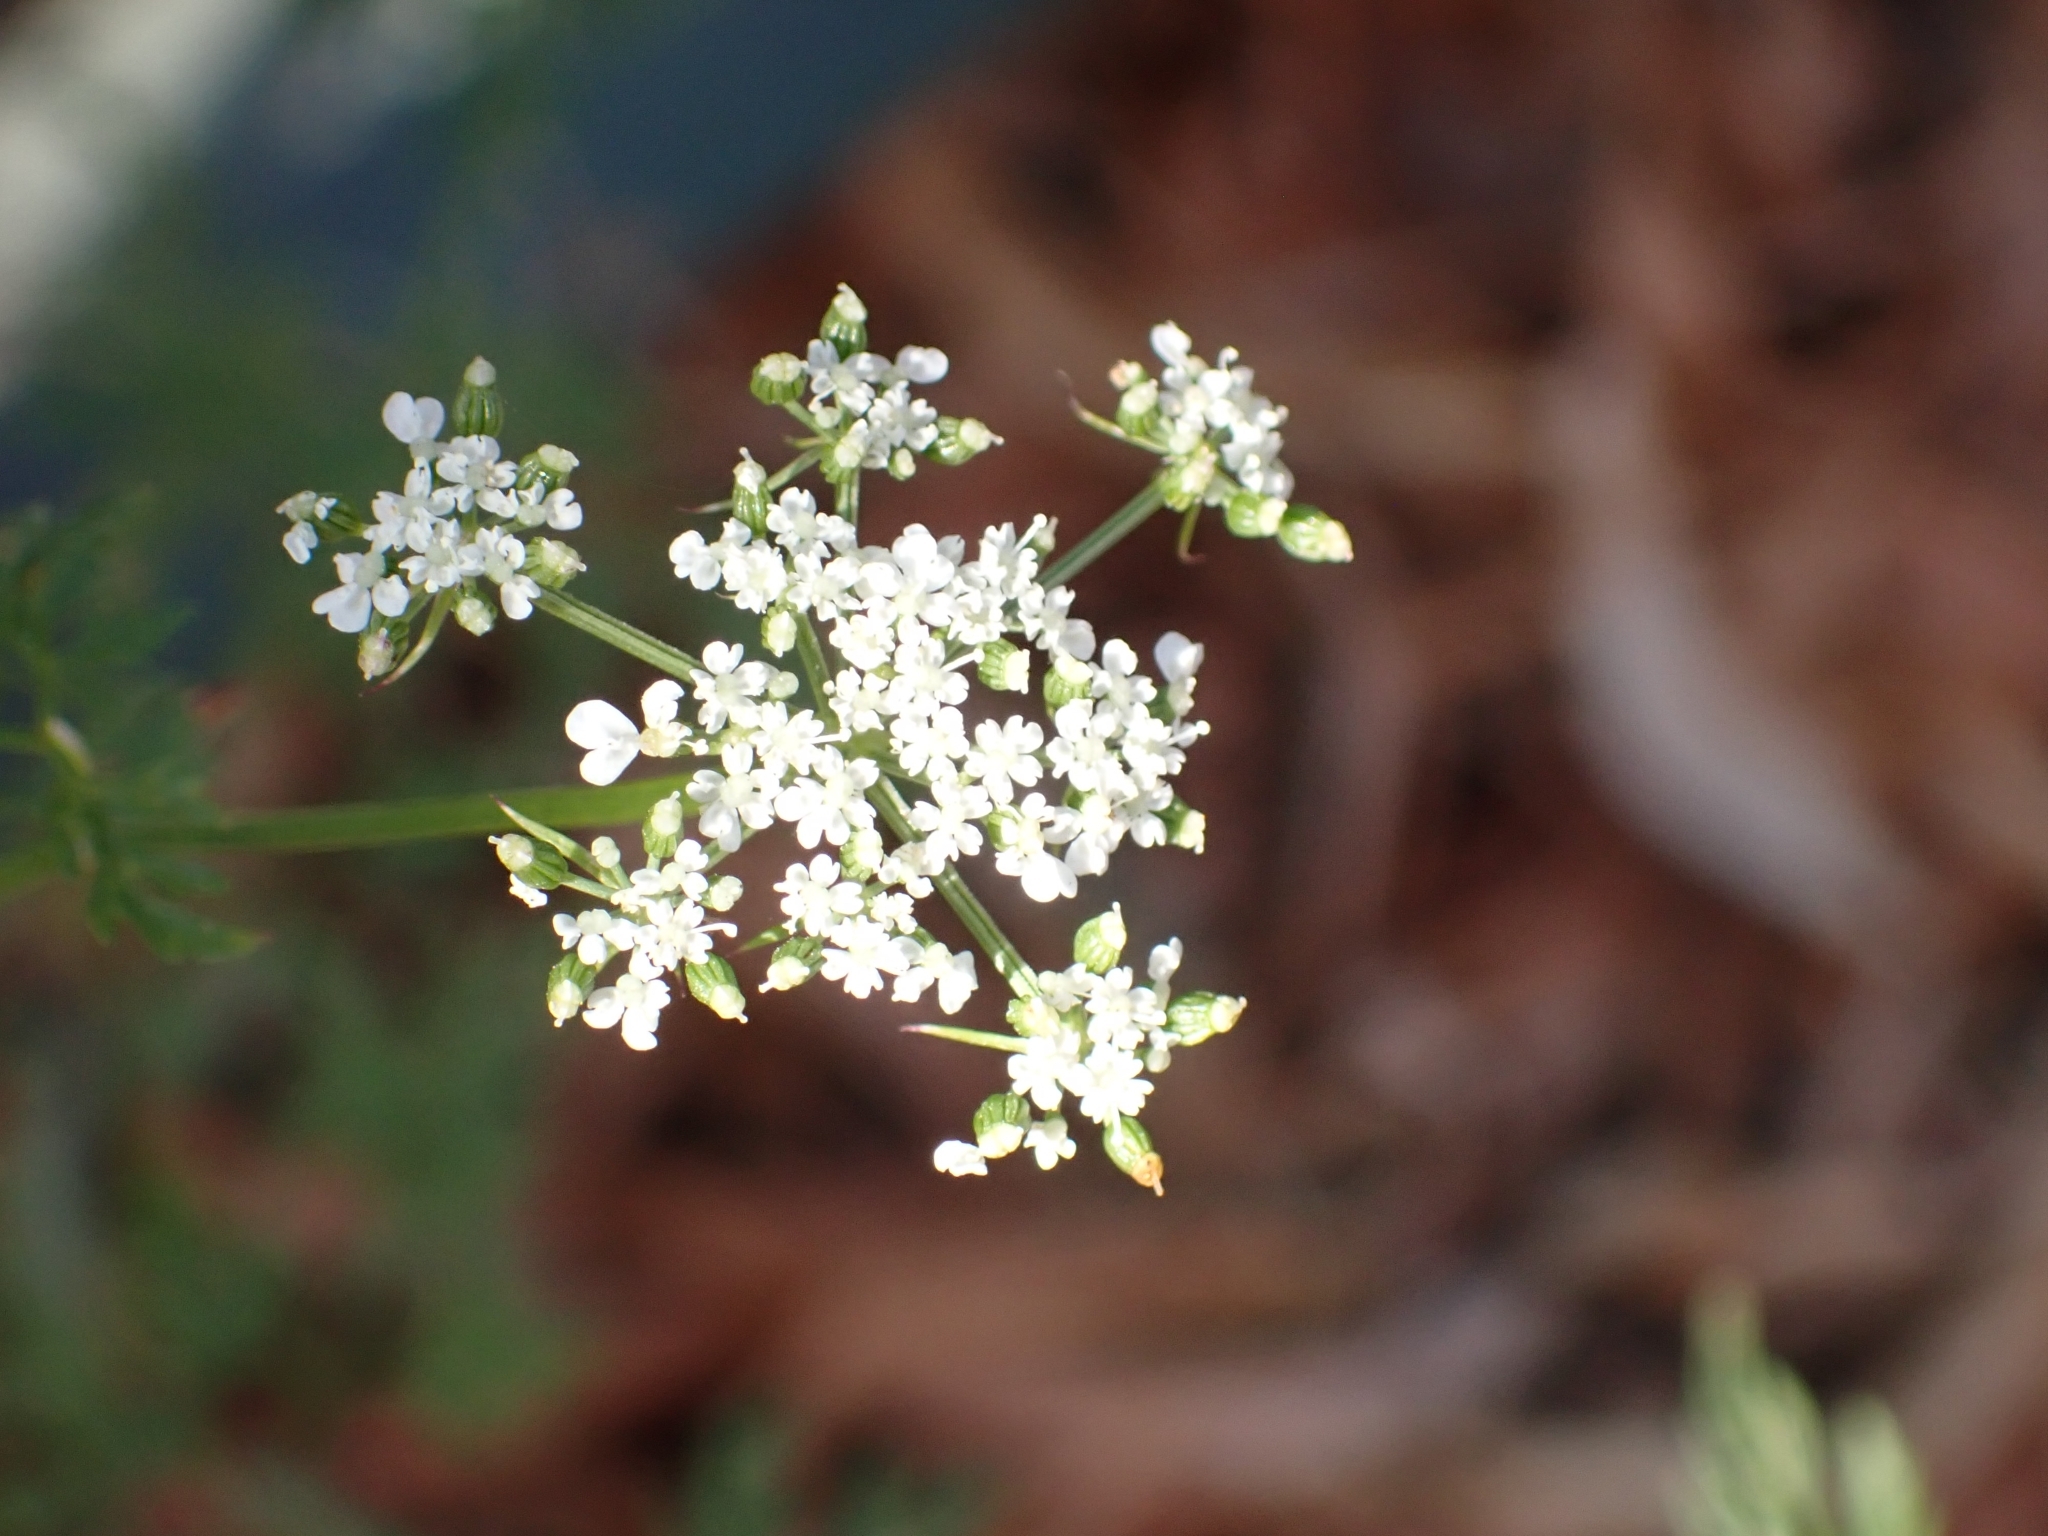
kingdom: Plantae
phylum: Tracheophyta
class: Magnoliopsida
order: Apiales
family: Apiaceae
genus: Aethusa
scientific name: Aethusa cynapium
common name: Fool's parsley
